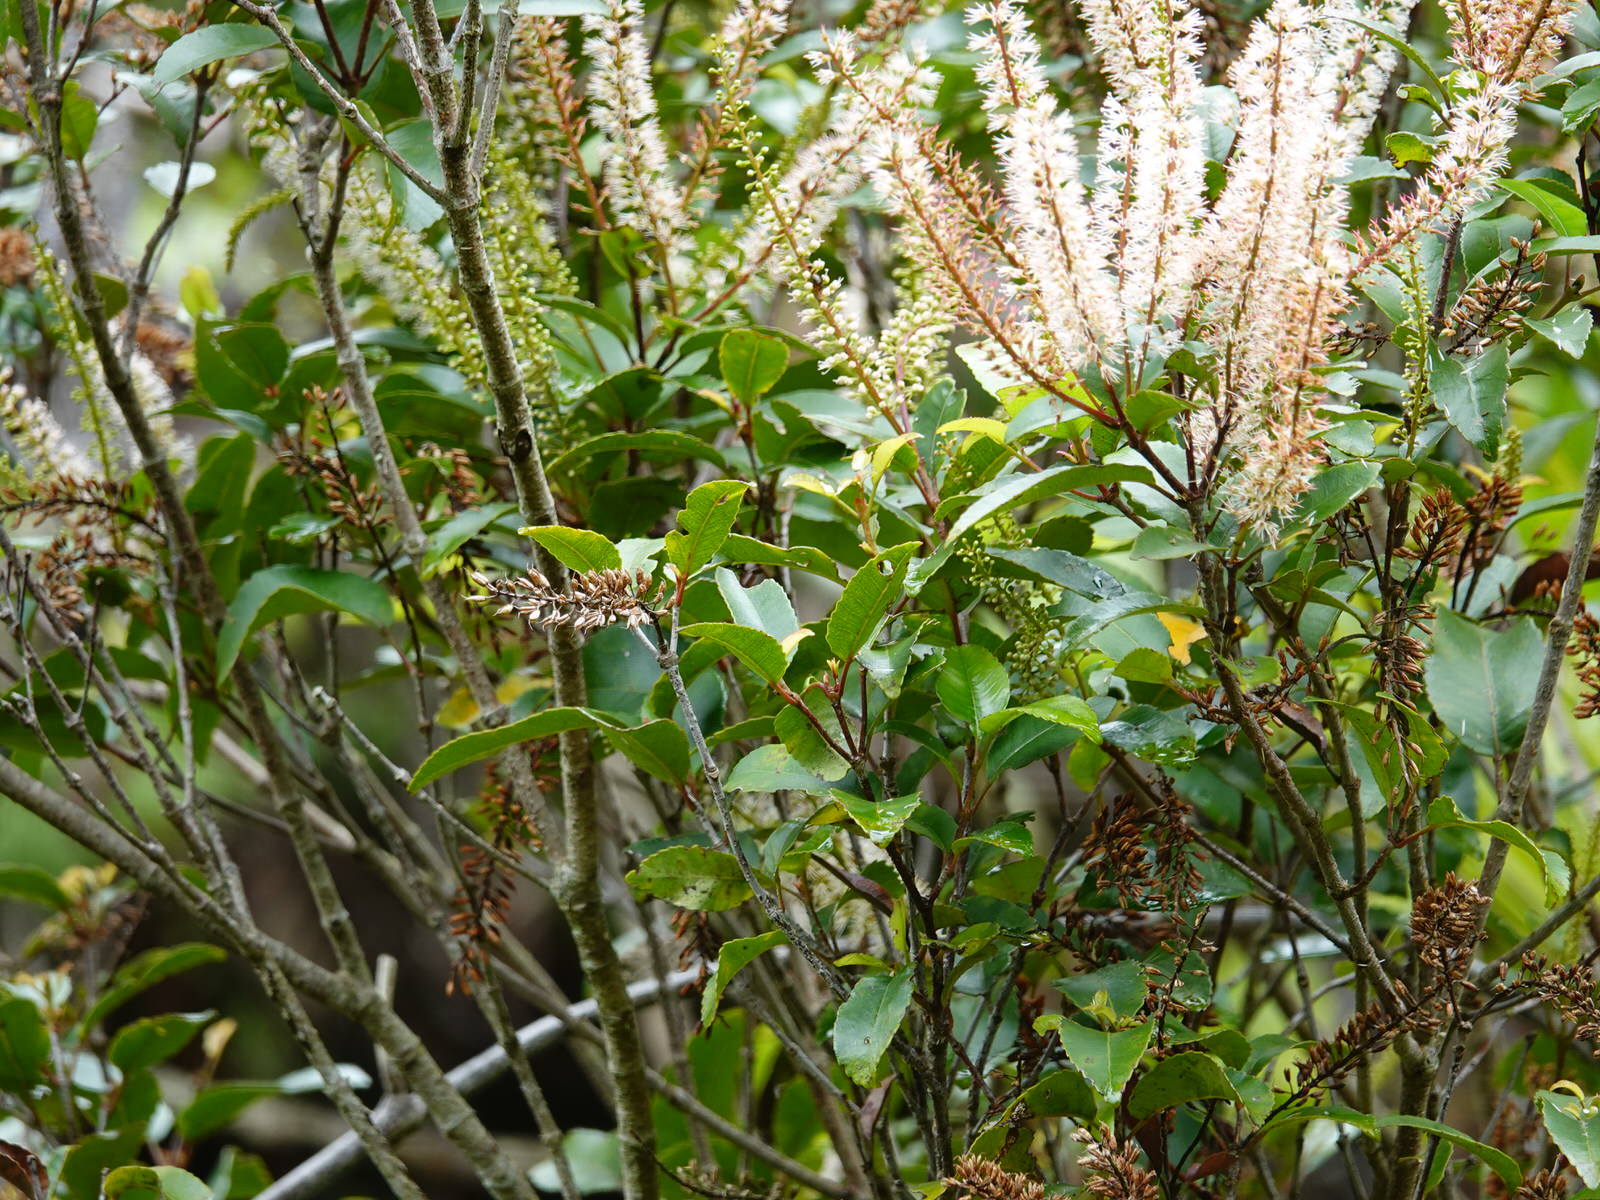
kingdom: Plantae
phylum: Tracheophyta
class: Magnoliopsida
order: Oxalidales
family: Cunoniaceae
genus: Pterophylla
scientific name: Pterophylla racemosa
